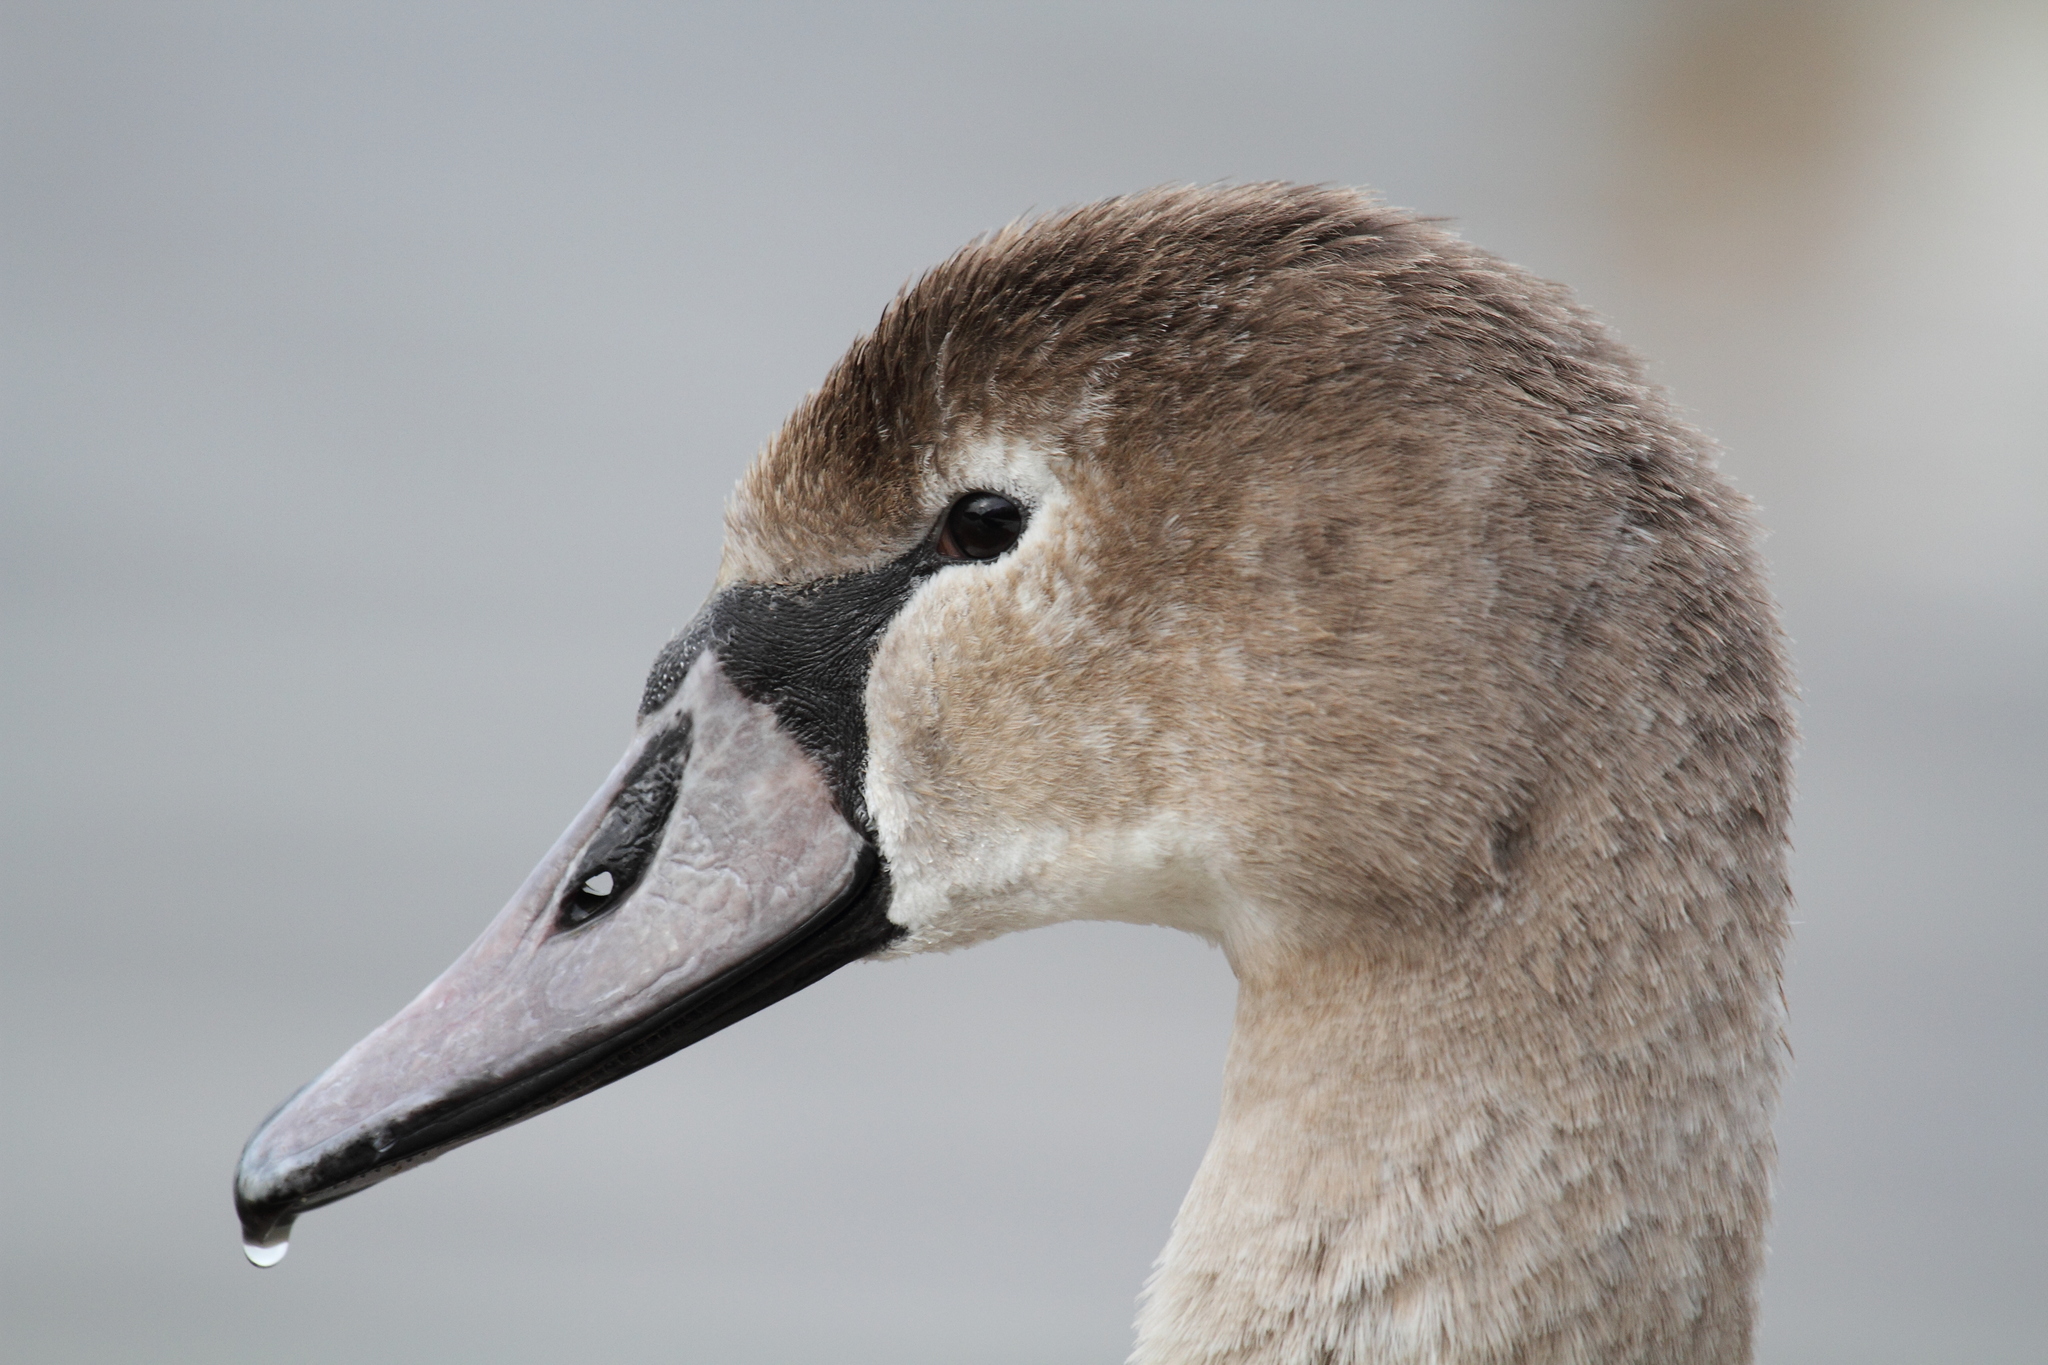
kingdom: Animalia
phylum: Chordata
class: Aves
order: Anseriformes
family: Anatidae
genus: Cygnus
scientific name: Cygnus olor
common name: Mute swan
